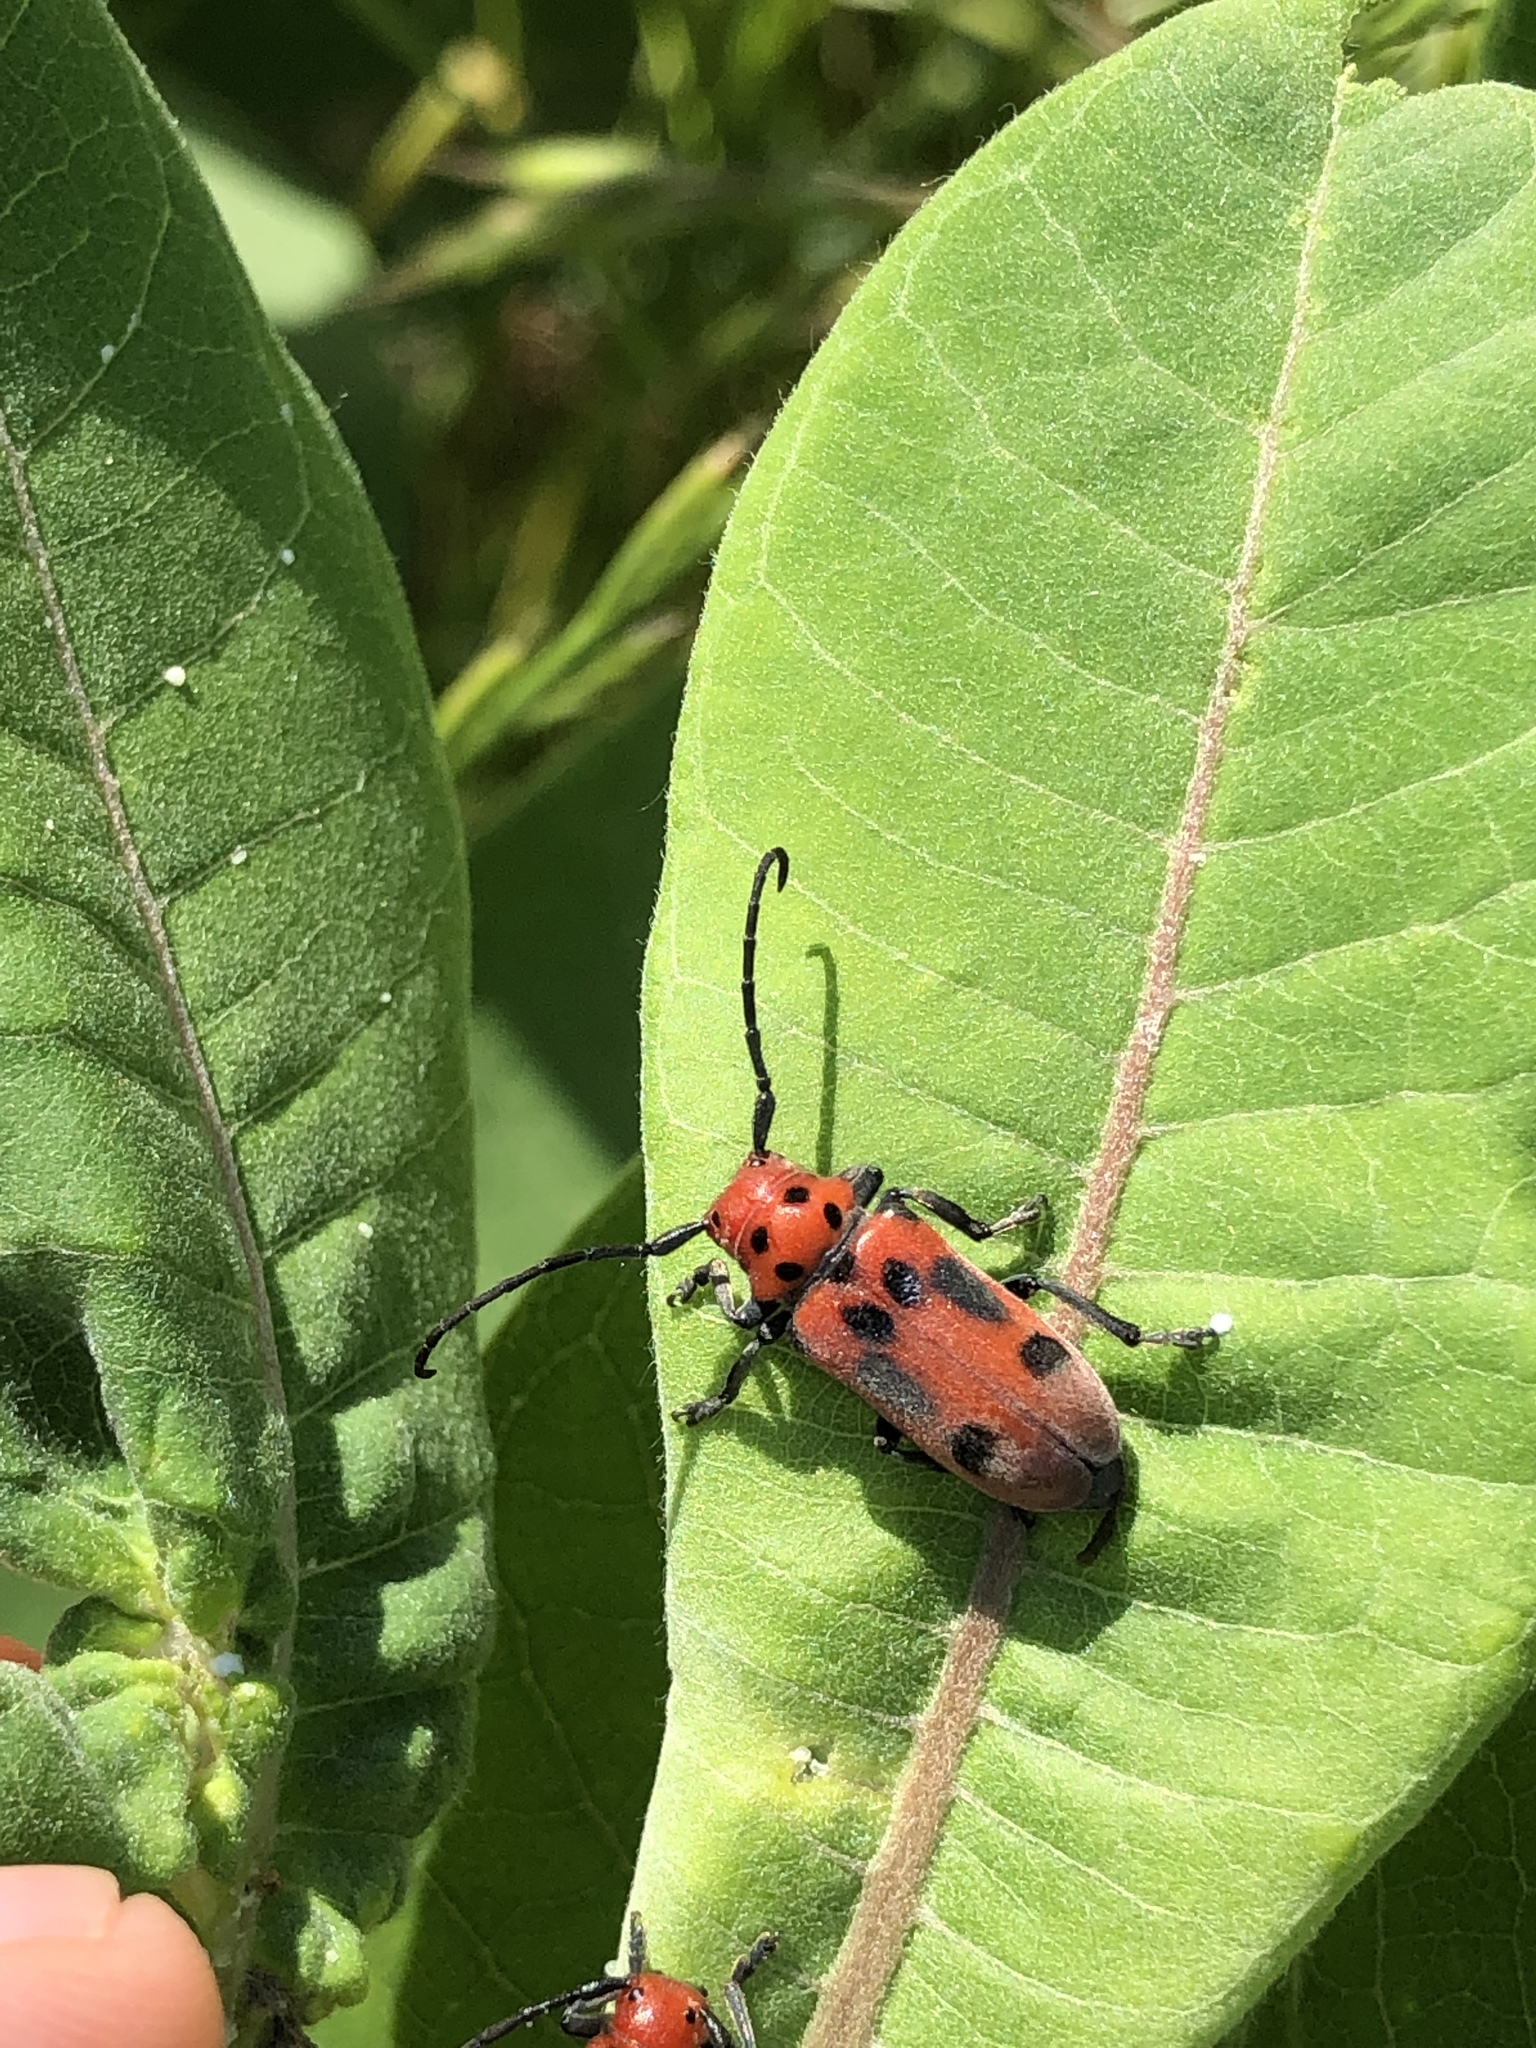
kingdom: Animalia
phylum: Arthropoda
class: Insecta
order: Coleoptera
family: Cerambycidae
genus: Tetraopes
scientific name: Tetraopes tetrophthalmus
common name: Red milkweed beetle
